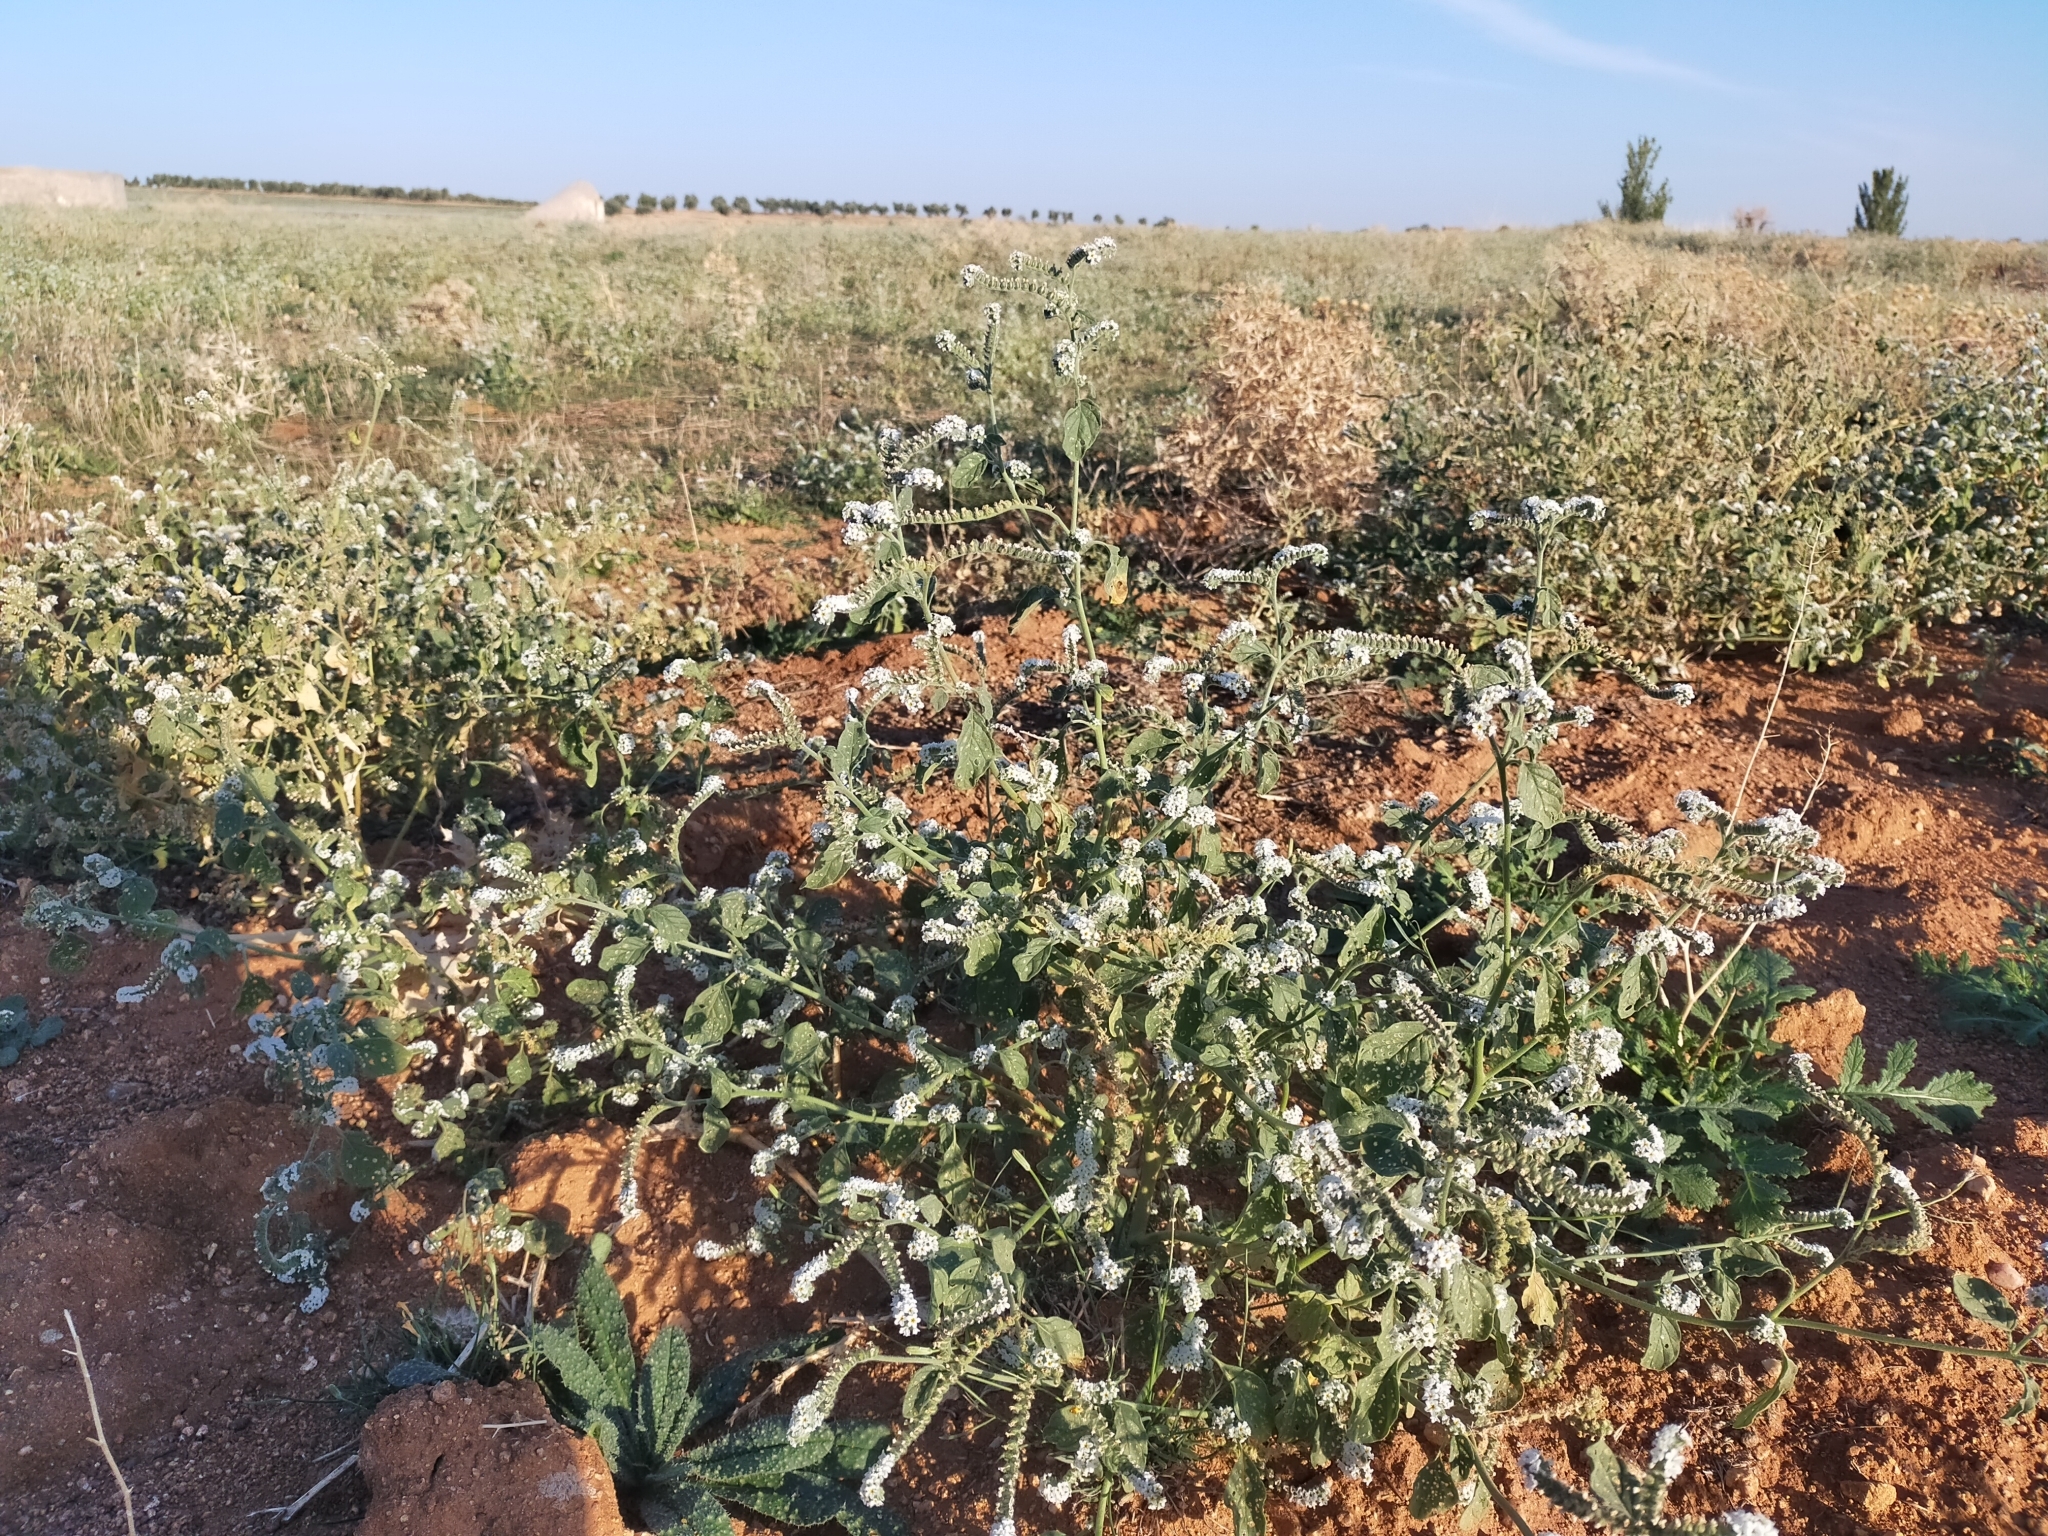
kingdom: Plantae
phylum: Tracheophyta
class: Magnoliopsida
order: Boraginales
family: Heliotropiaceae
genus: Heliotropium
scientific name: Heliotropium europaeum
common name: European heliotrope
